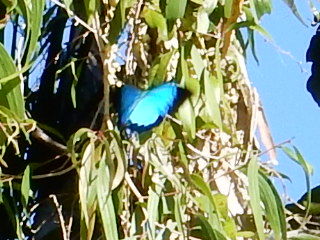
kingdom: Animalia
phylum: Arthropoda
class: Insecta
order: Lepidoptera
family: Papilionidae
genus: Papilio
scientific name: Papilio ulysses
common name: Blue emperor
